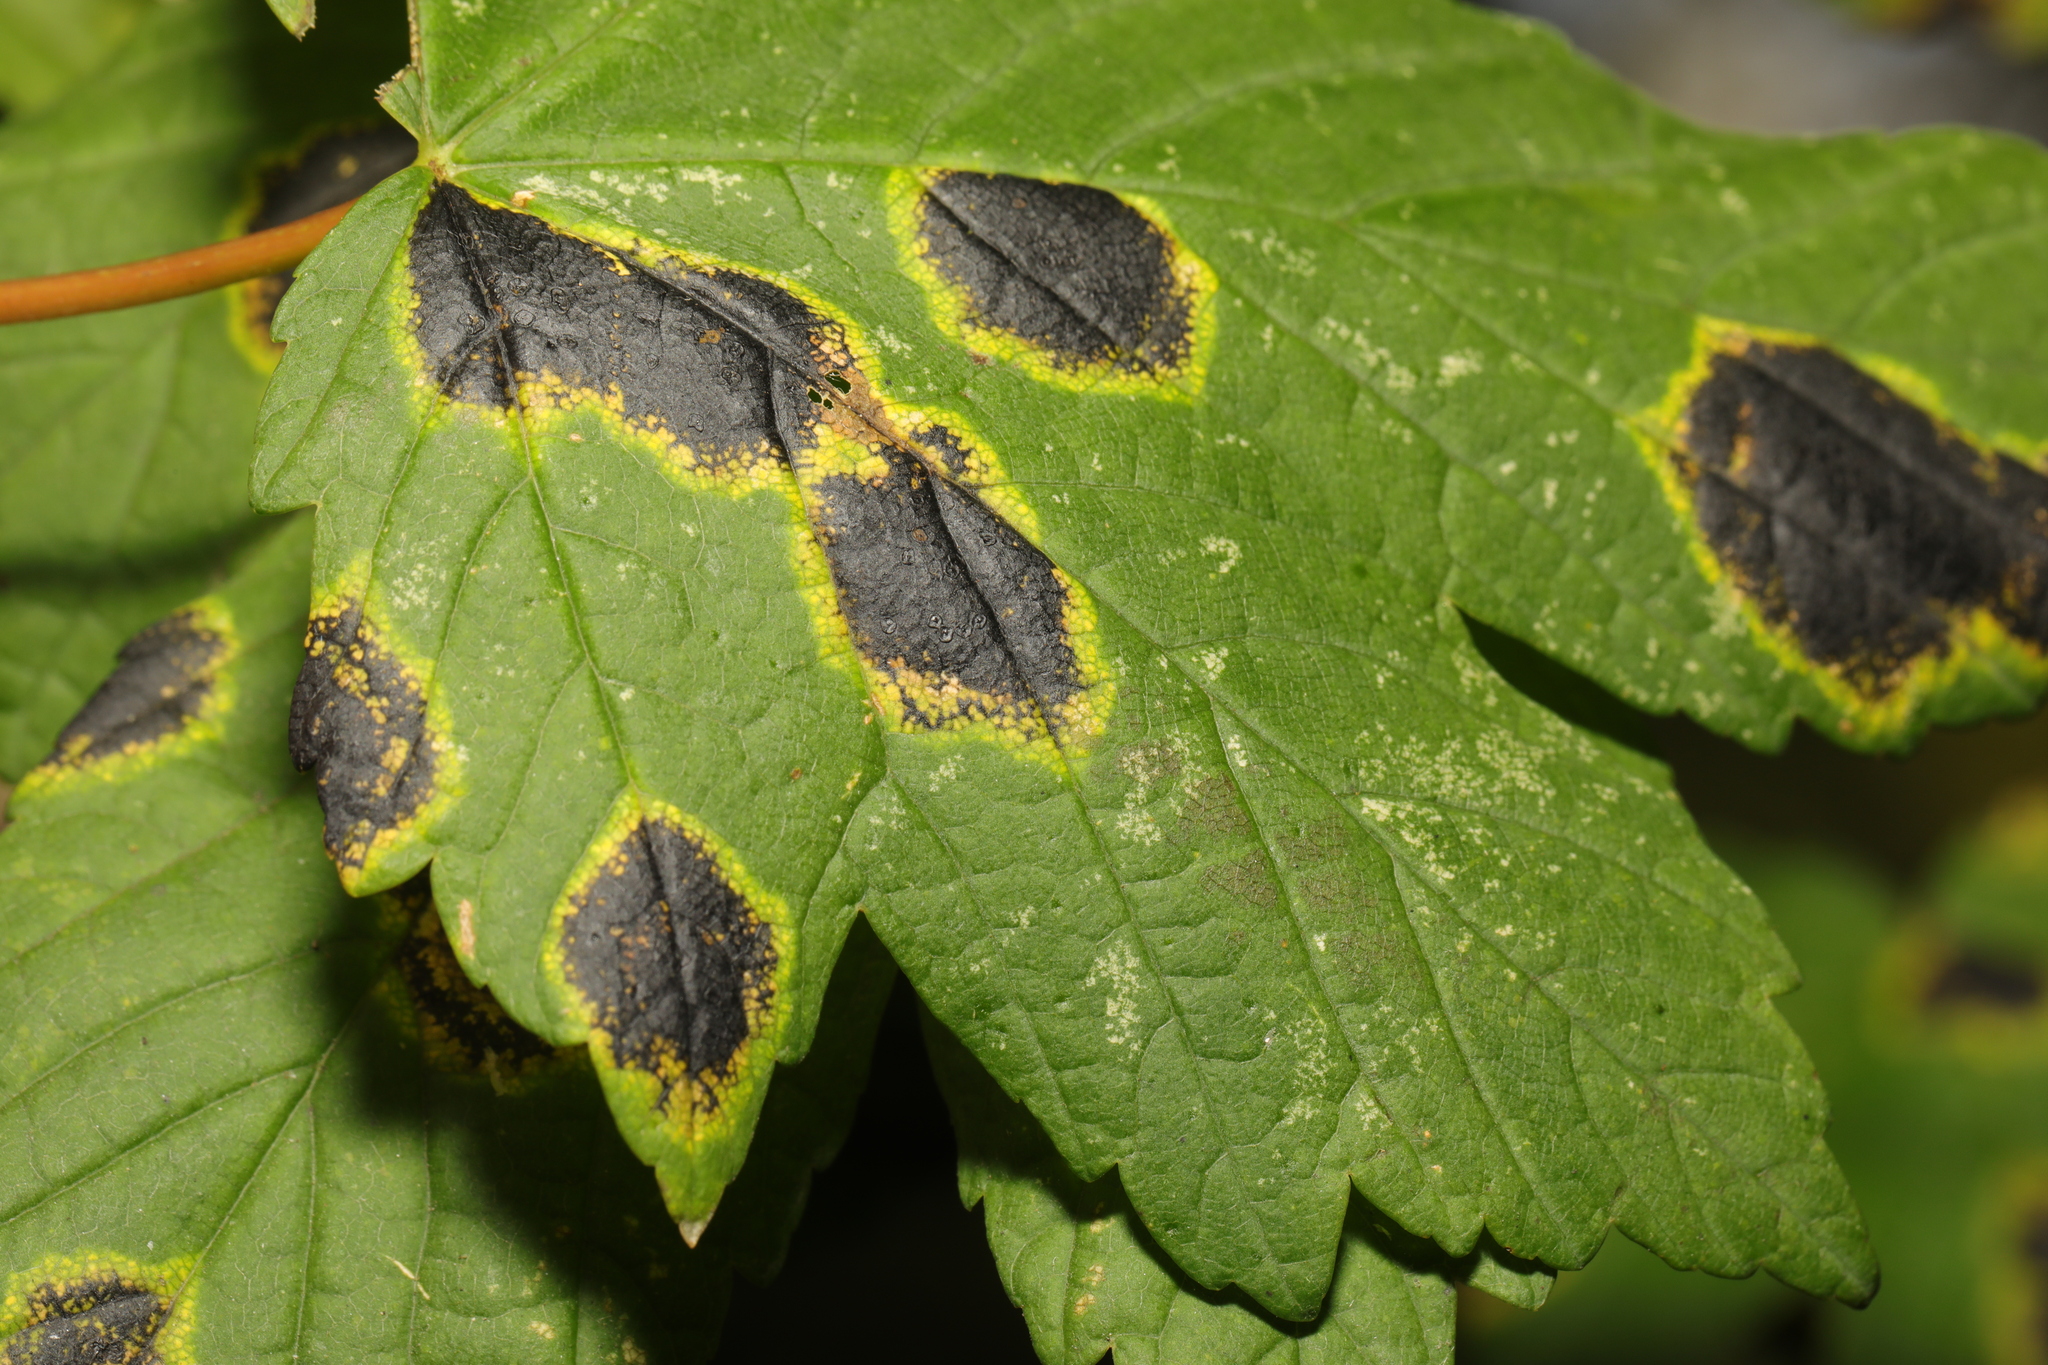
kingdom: Fungi
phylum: Ascomycota
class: Leotiomycetes
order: Rhytismatales
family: Rhytismataceae
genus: Rhytisma
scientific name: Rhytisma acerinum
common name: European tar spot
